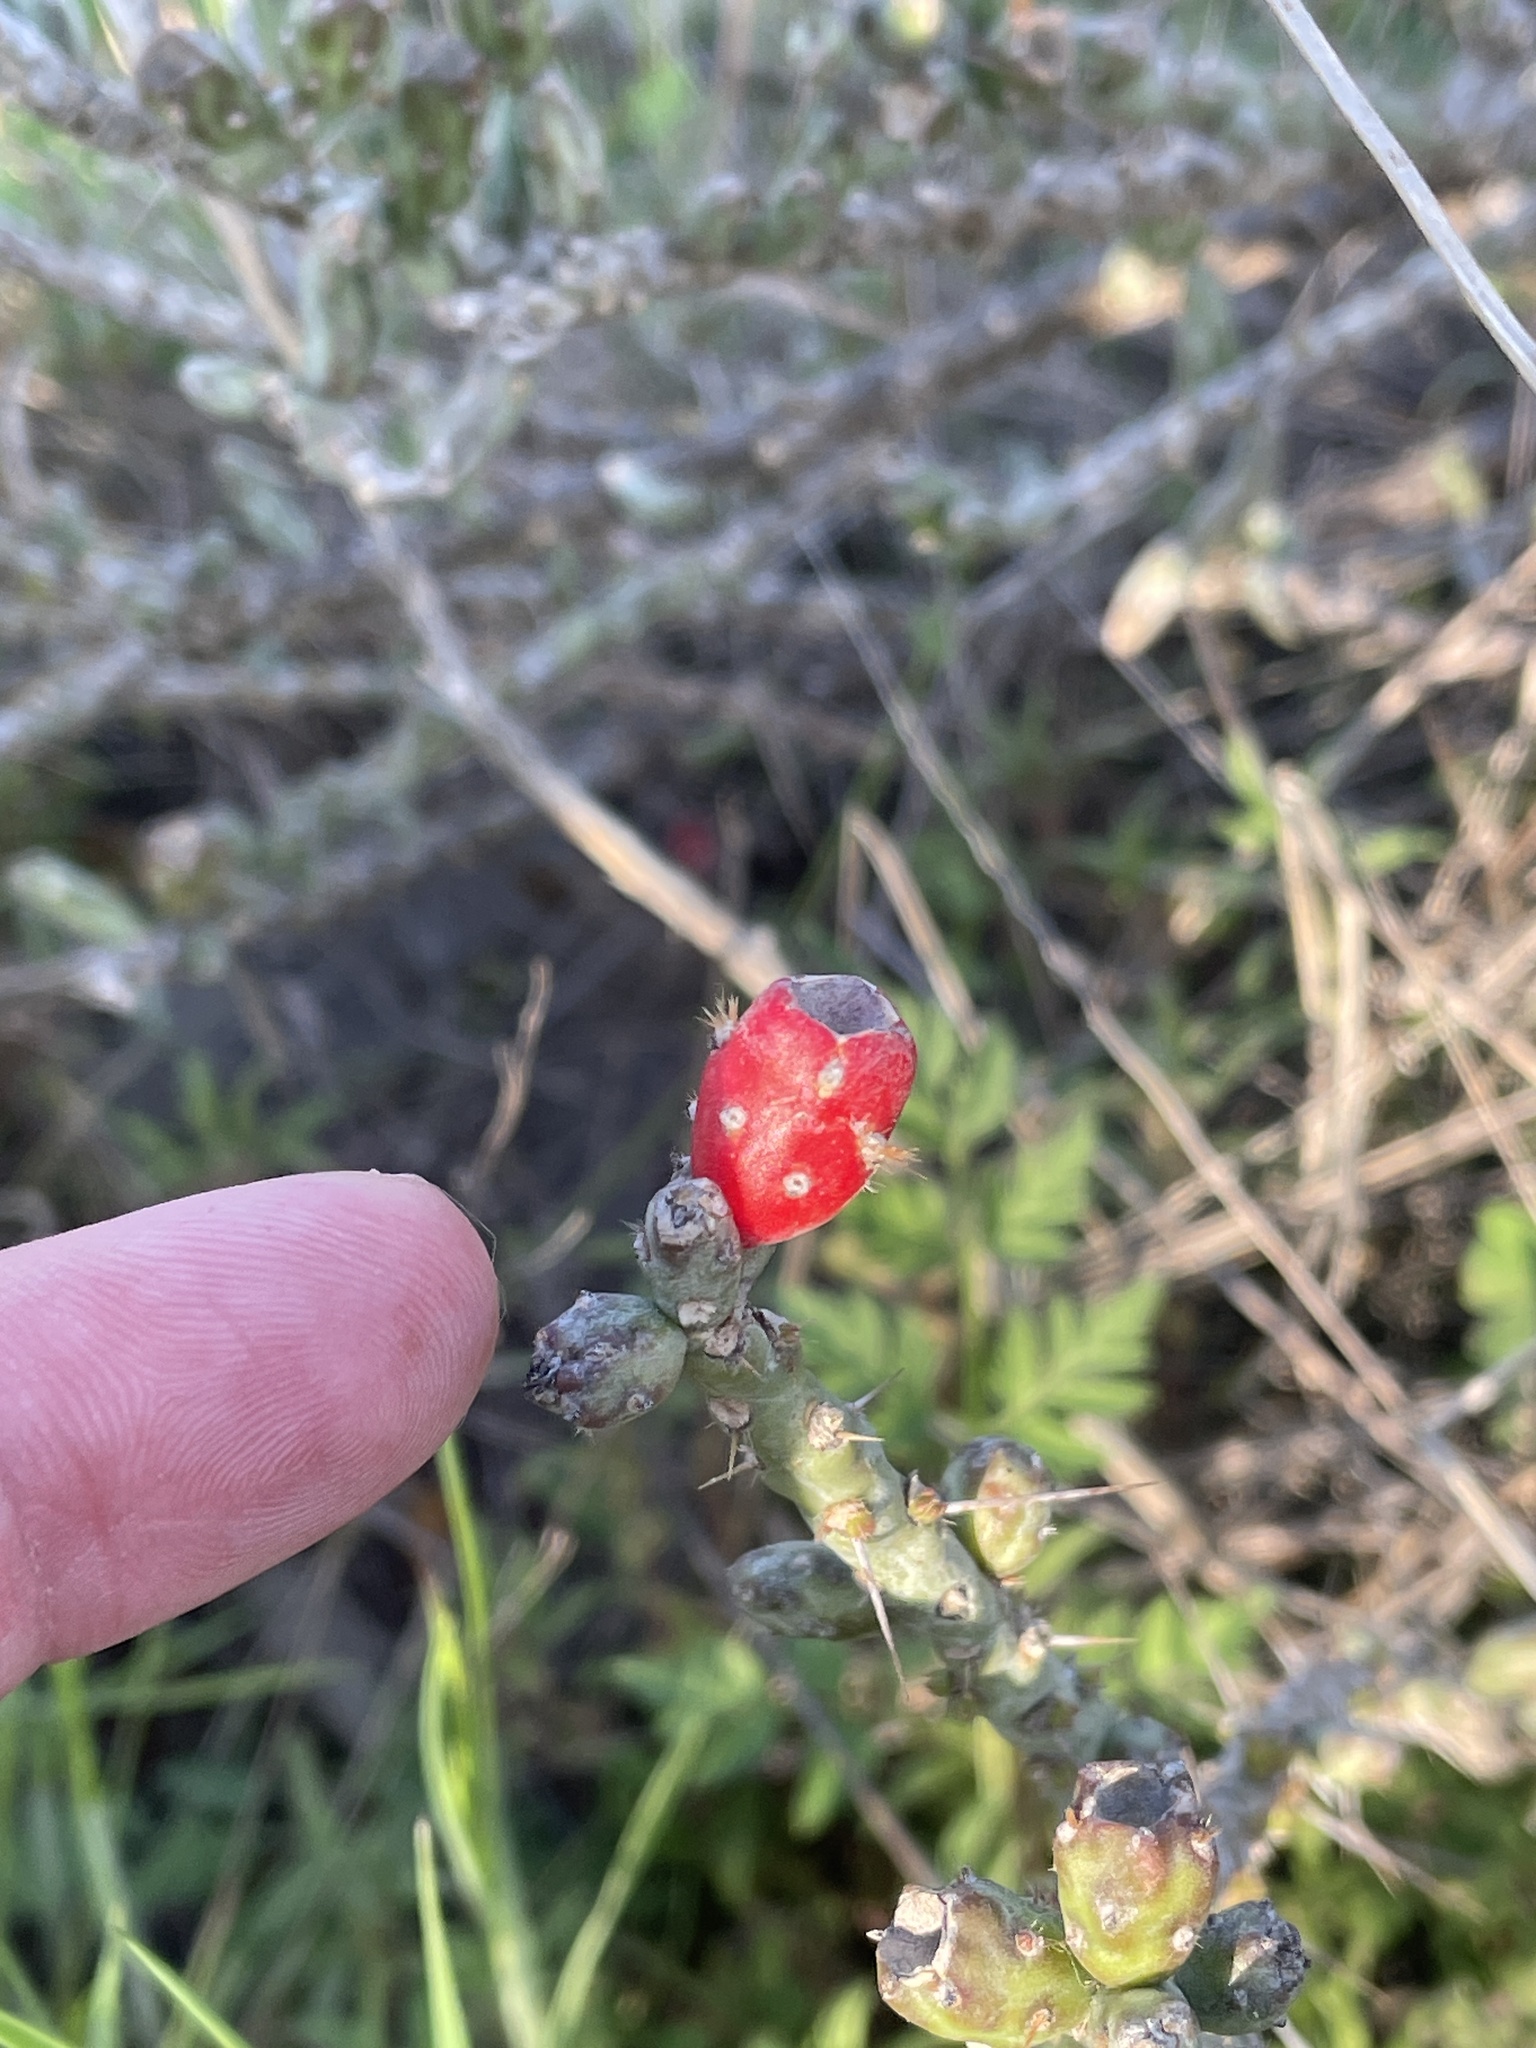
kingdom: Plantae
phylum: Tracheophyta
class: Magnoliopsida
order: Caryophyllales
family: Cactaceae
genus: Cylindropuntia
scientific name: Cylindropuntia leptocaulis
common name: Christmas cactus
